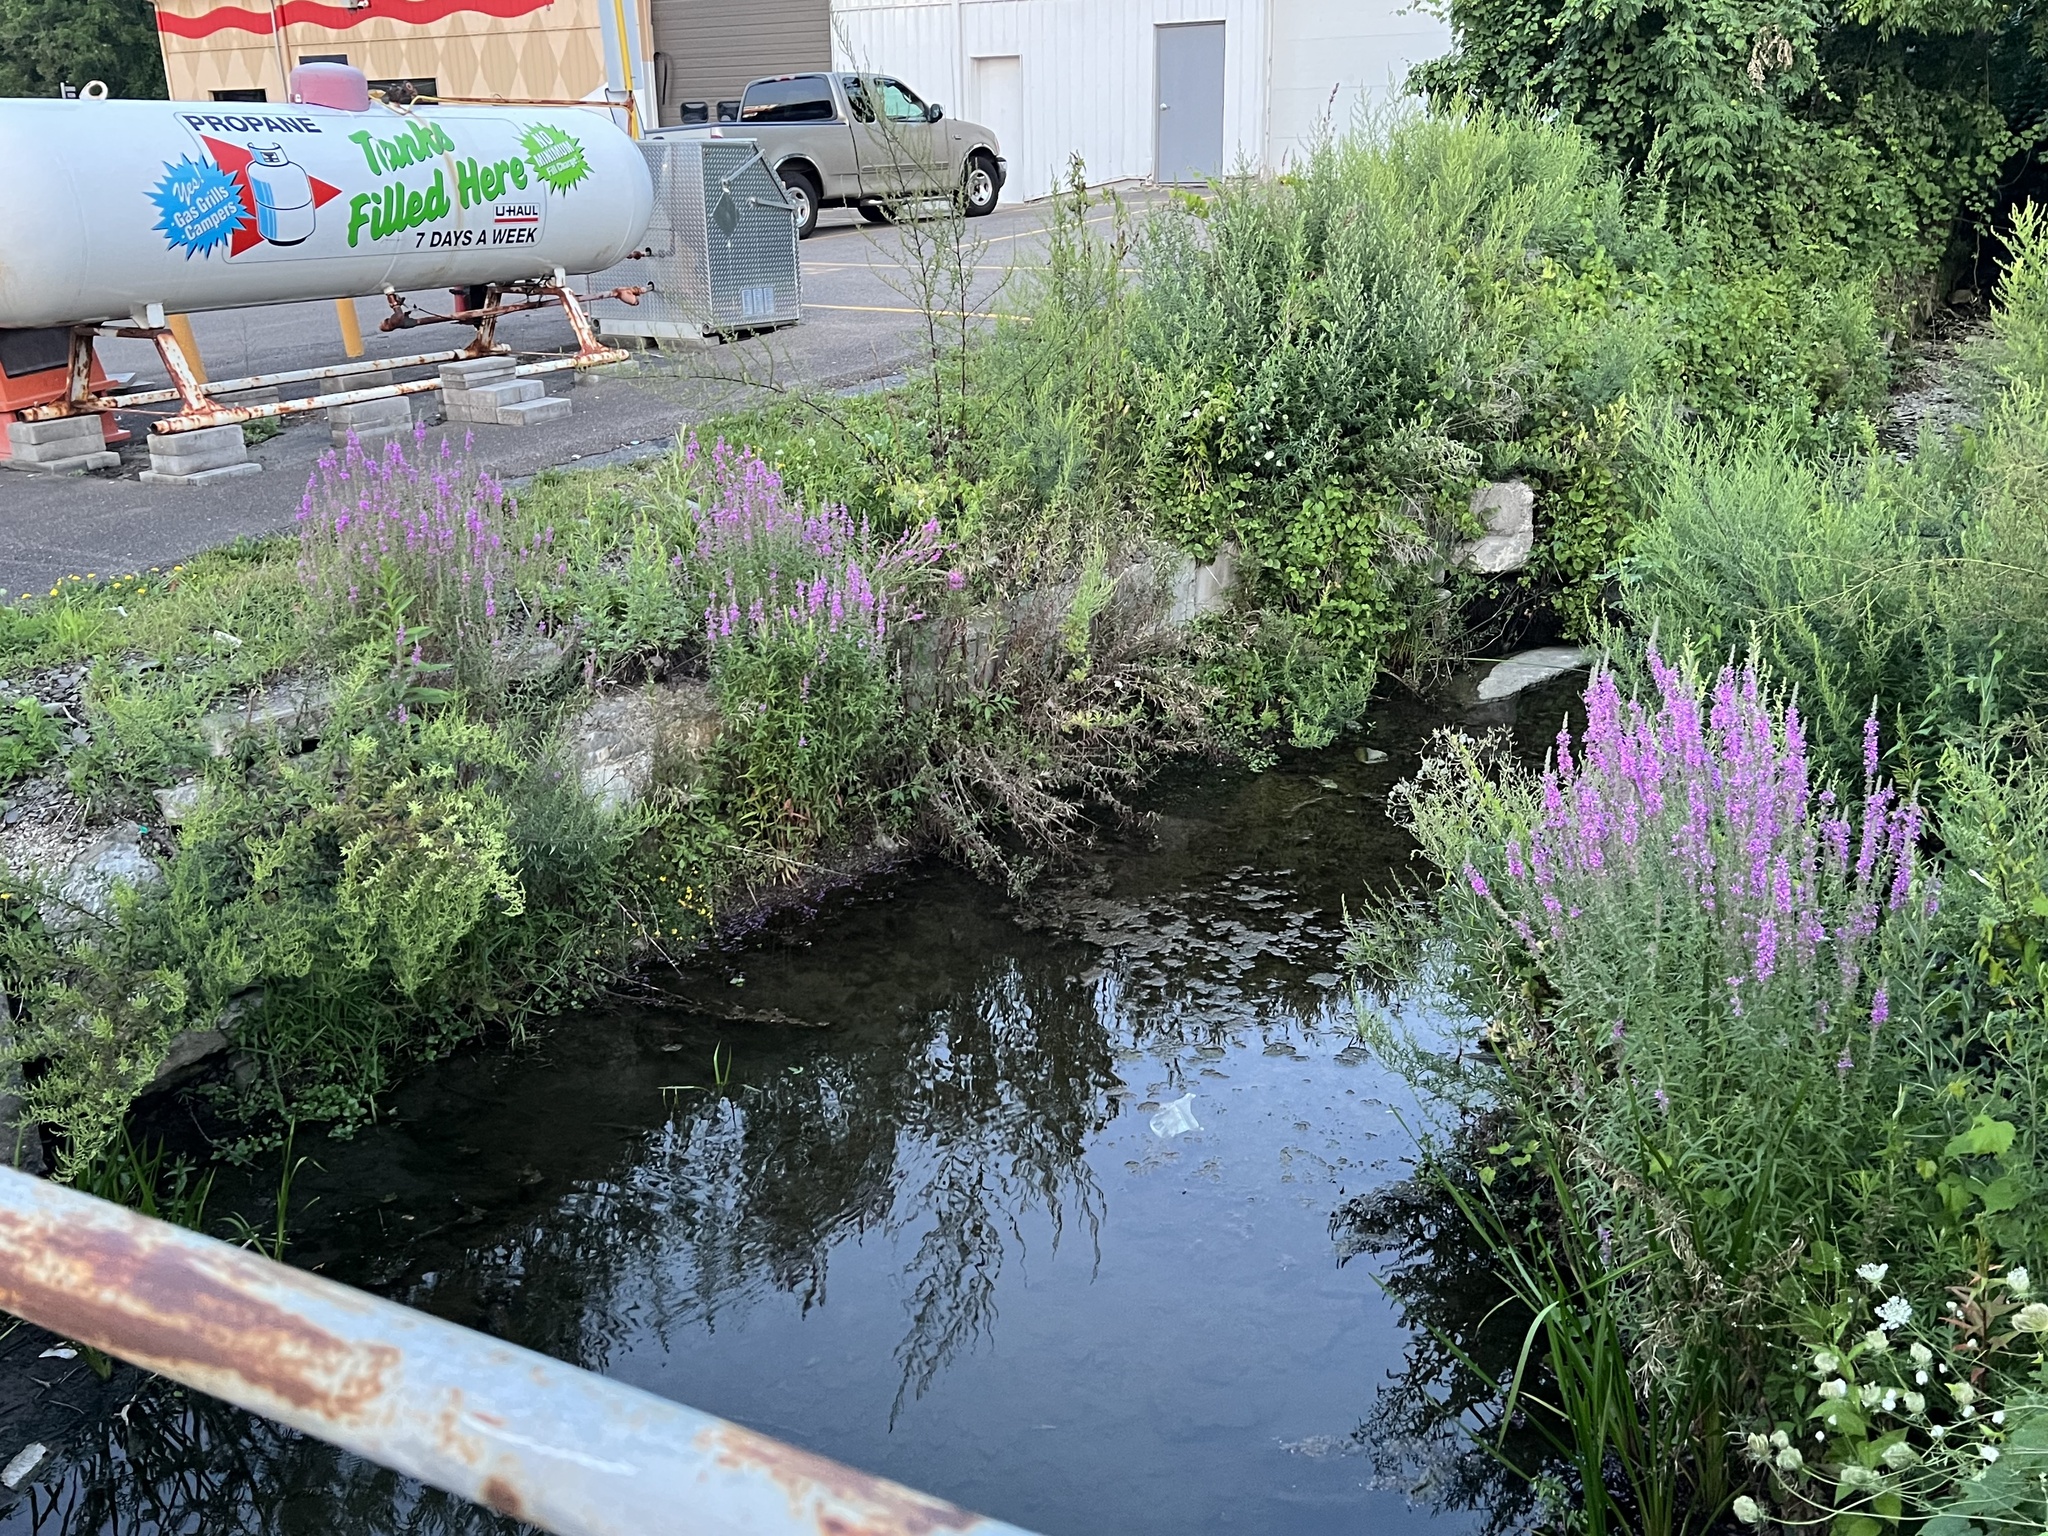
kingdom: Plantae
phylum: Tracheophyta
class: Magnoliopsida
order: Myrtales
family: Lythraceae
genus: Lythrum
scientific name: Lythrum salicaria
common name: Purple loosestrife
